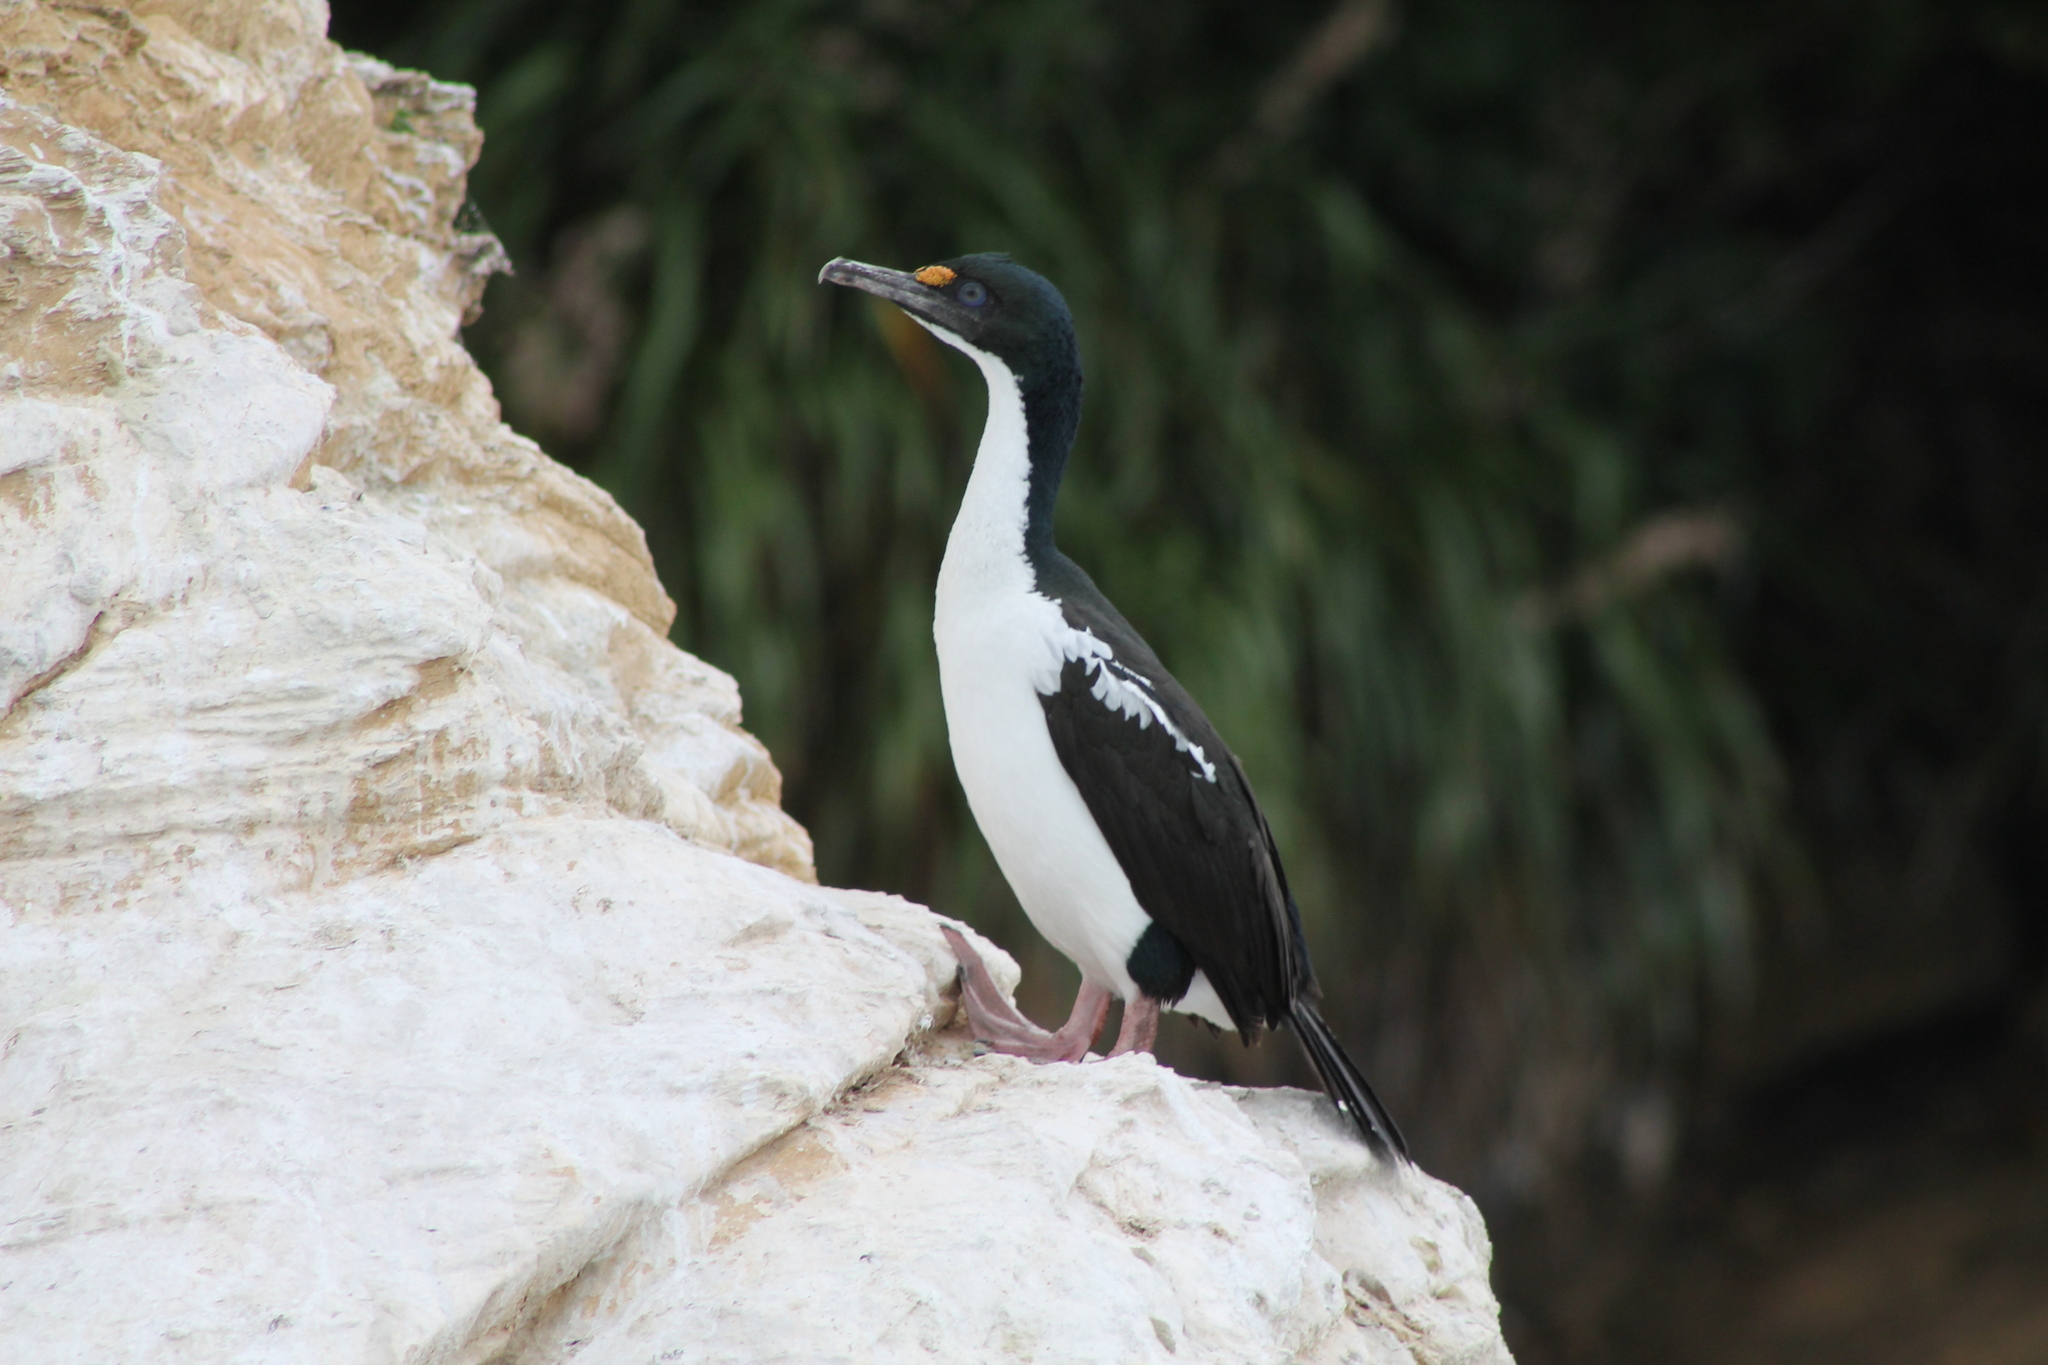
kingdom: Animalia
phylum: Chordata
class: Aves
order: Suliformes
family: Phalacrocoracidae
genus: Leucocarbo
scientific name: Leucocarbo carunculatus
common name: Rough-faced shag
